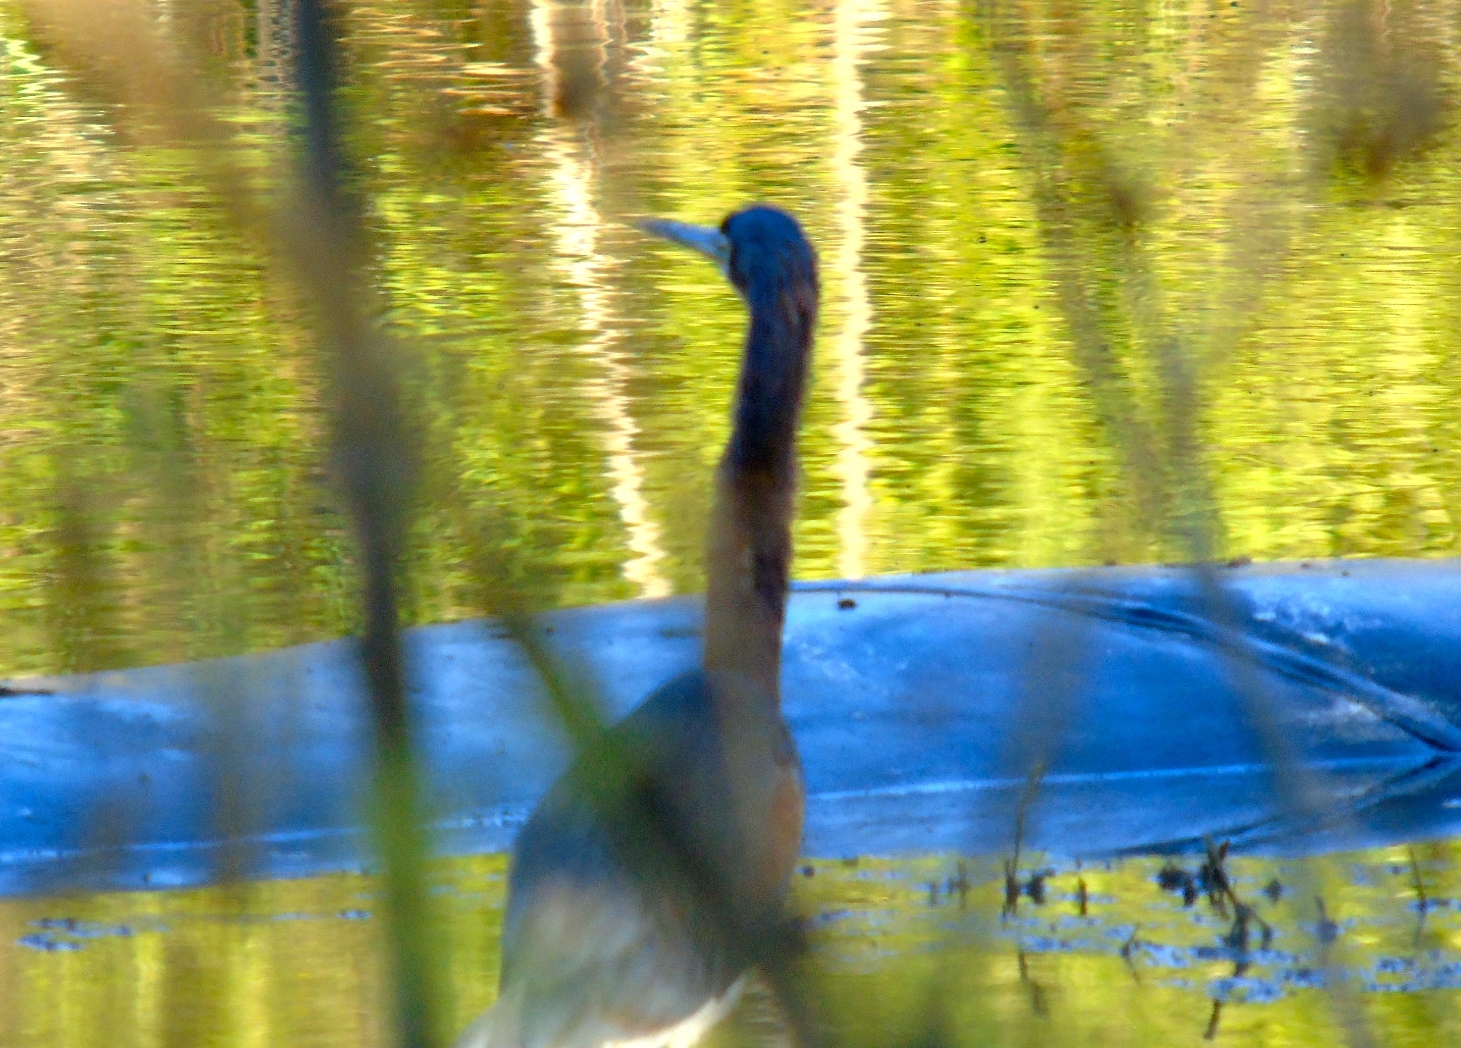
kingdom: Animalia
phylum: Chordata
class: Aves
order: Pelecaniformes
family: Ardeidae
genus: Egretta
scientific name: Egretta tricolor
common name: Tricolored heron
